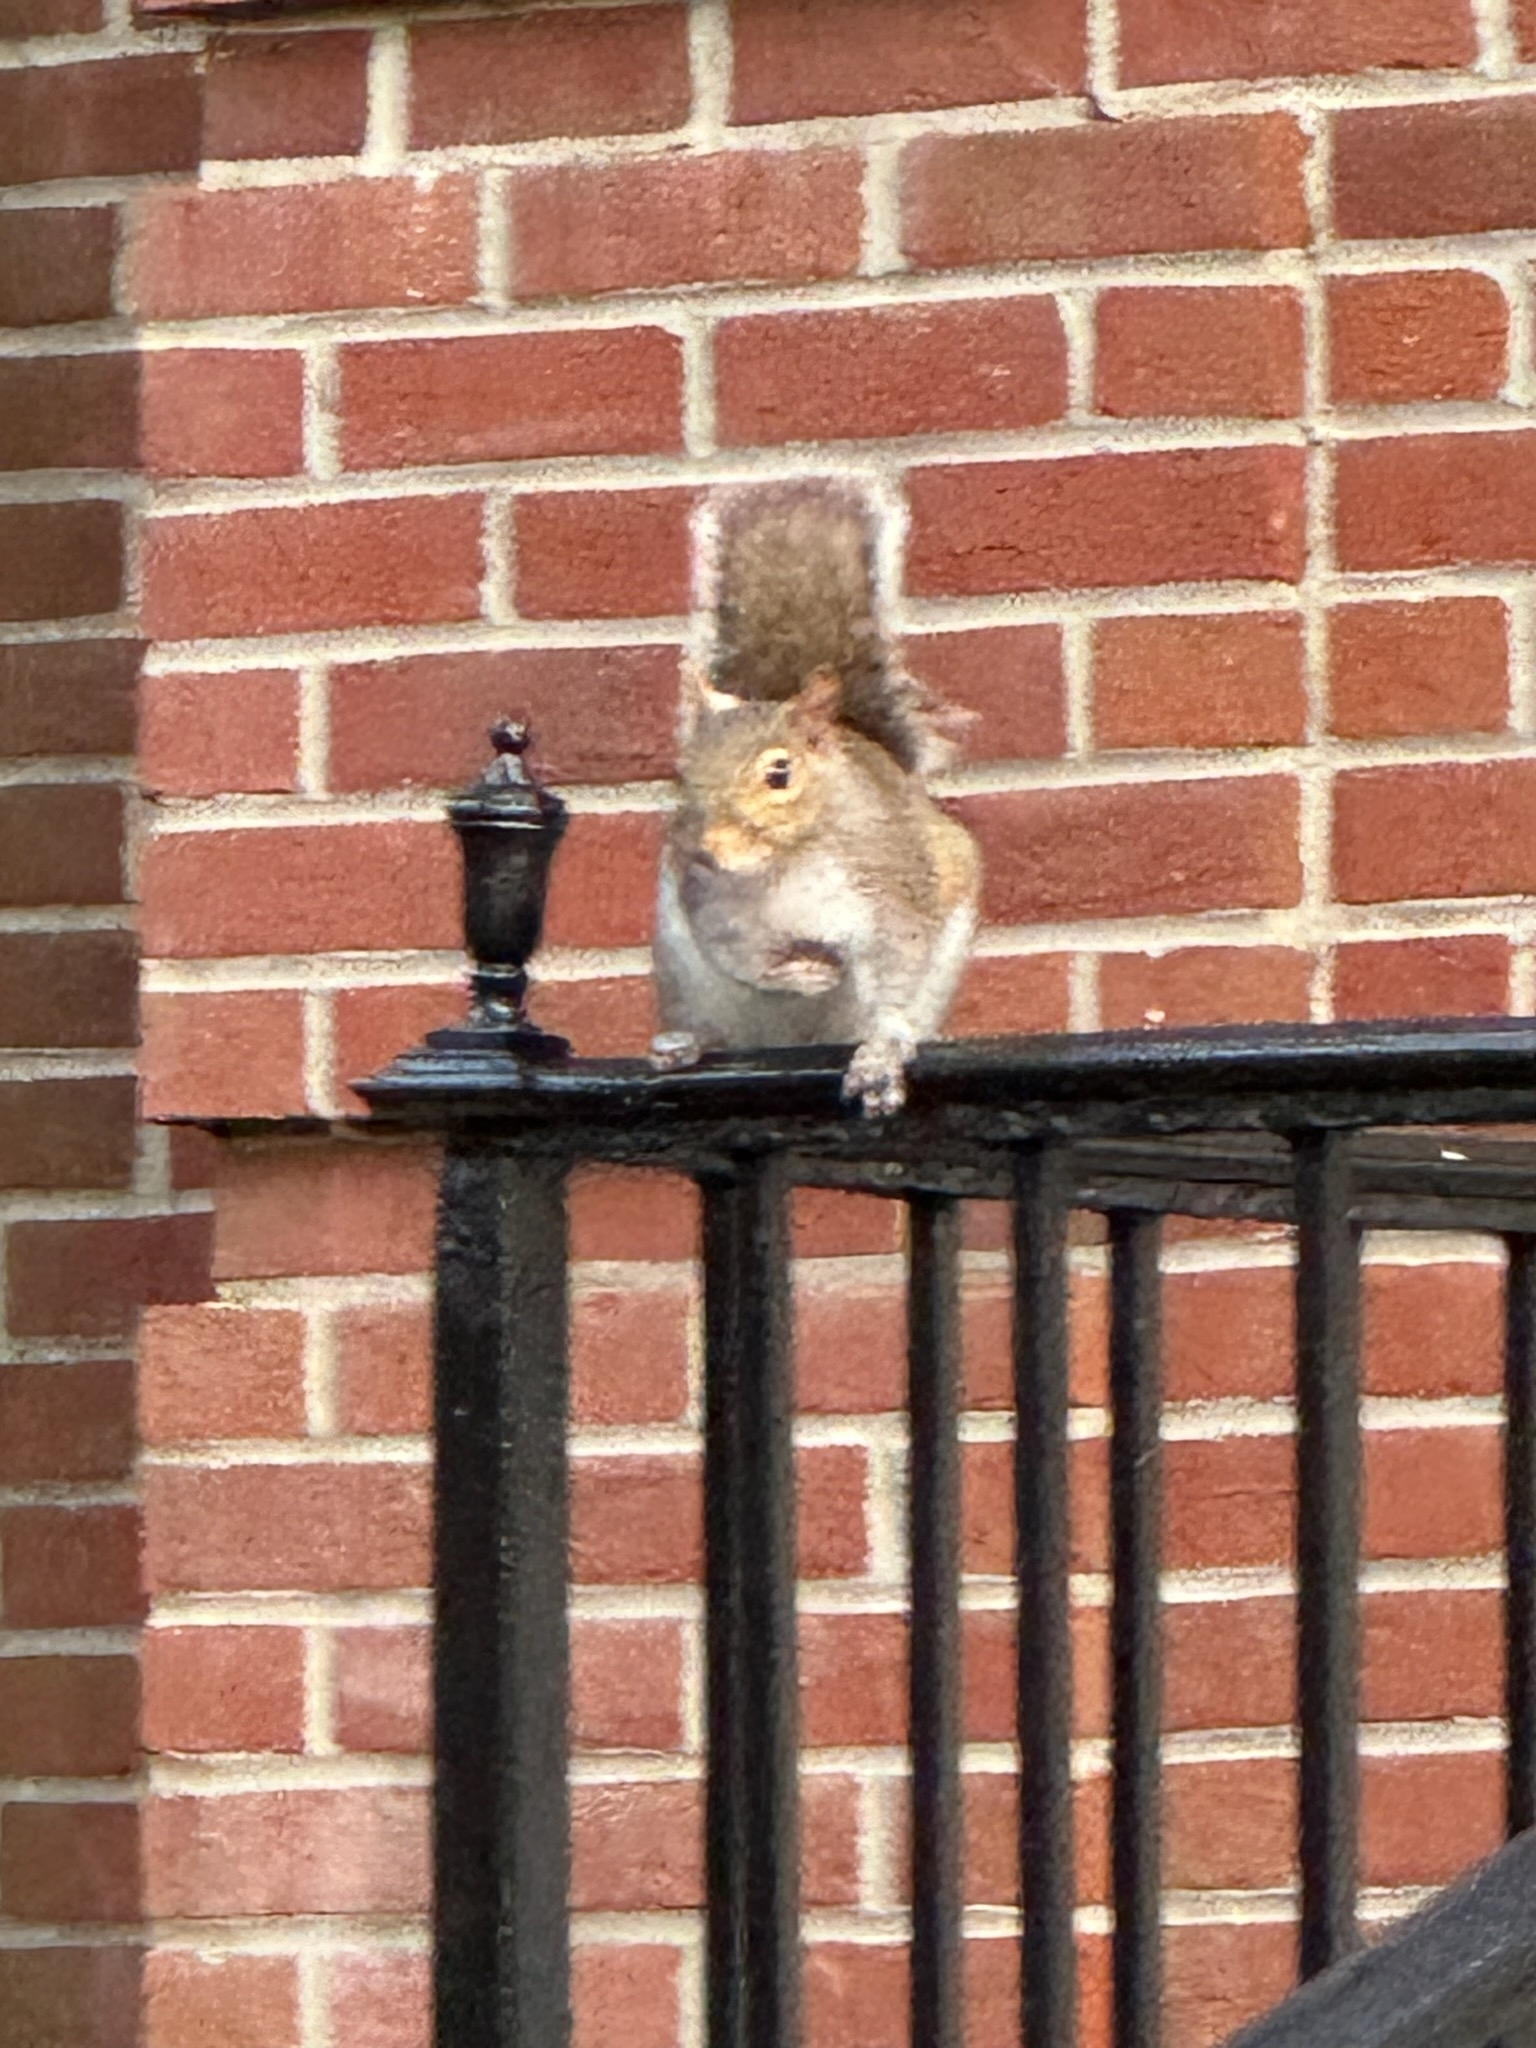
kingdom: Animalia
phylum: Chordata
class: Mammalia
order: Rodentia
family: Sciuridae
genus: Sciurus
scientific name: Sciurus carolinensis
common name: Eastern gray squirrel
